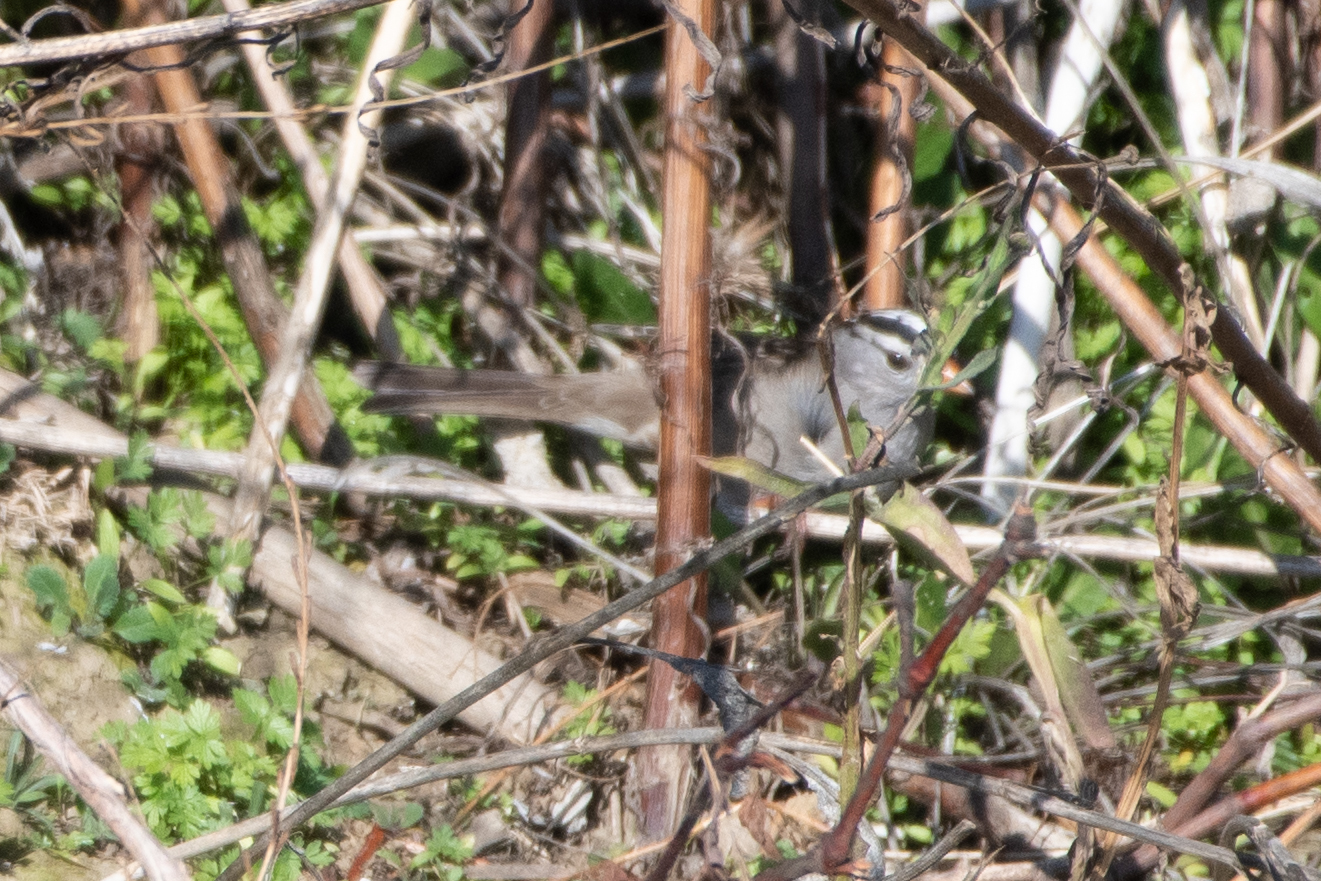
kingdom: Animalia
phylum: Chordata
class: Aves
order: Passeriformes
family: Passerellidae
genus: Zonotrichia
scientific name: Zonotrichia leucophrys
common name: White-crowned sparrow
